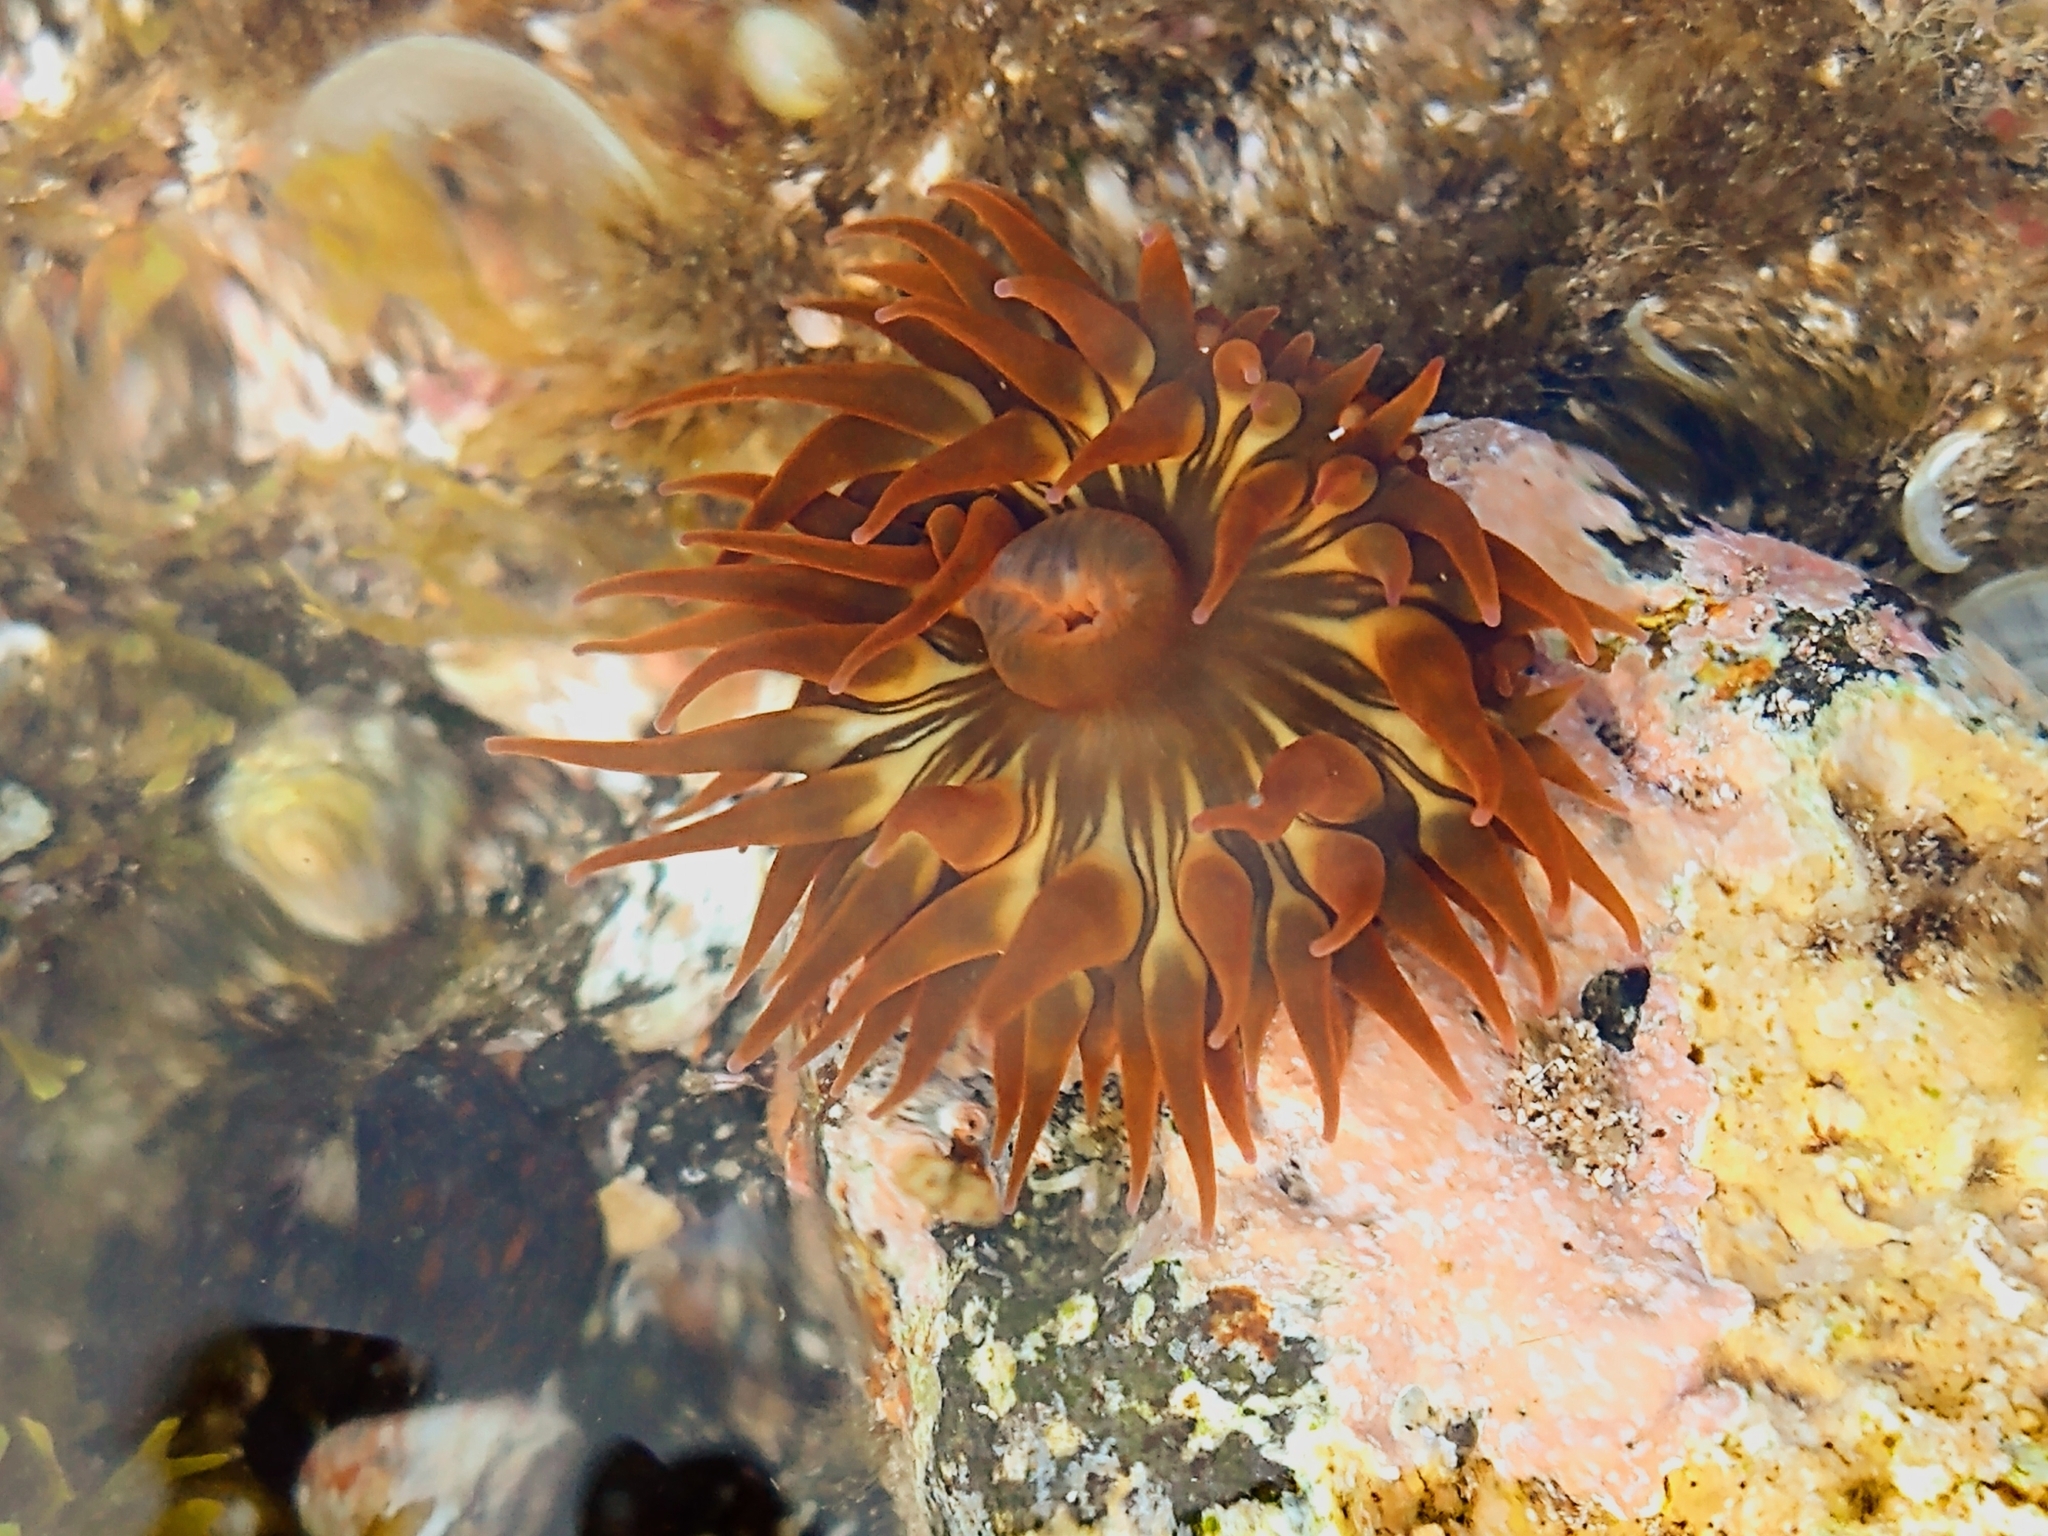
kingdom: Animalia
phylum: Cnidaria
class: Anthozoa
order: Actiniaria
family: Actiniidae
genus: Anemonia
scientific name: Anemonia sargassensis
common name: Sargassum anemone
